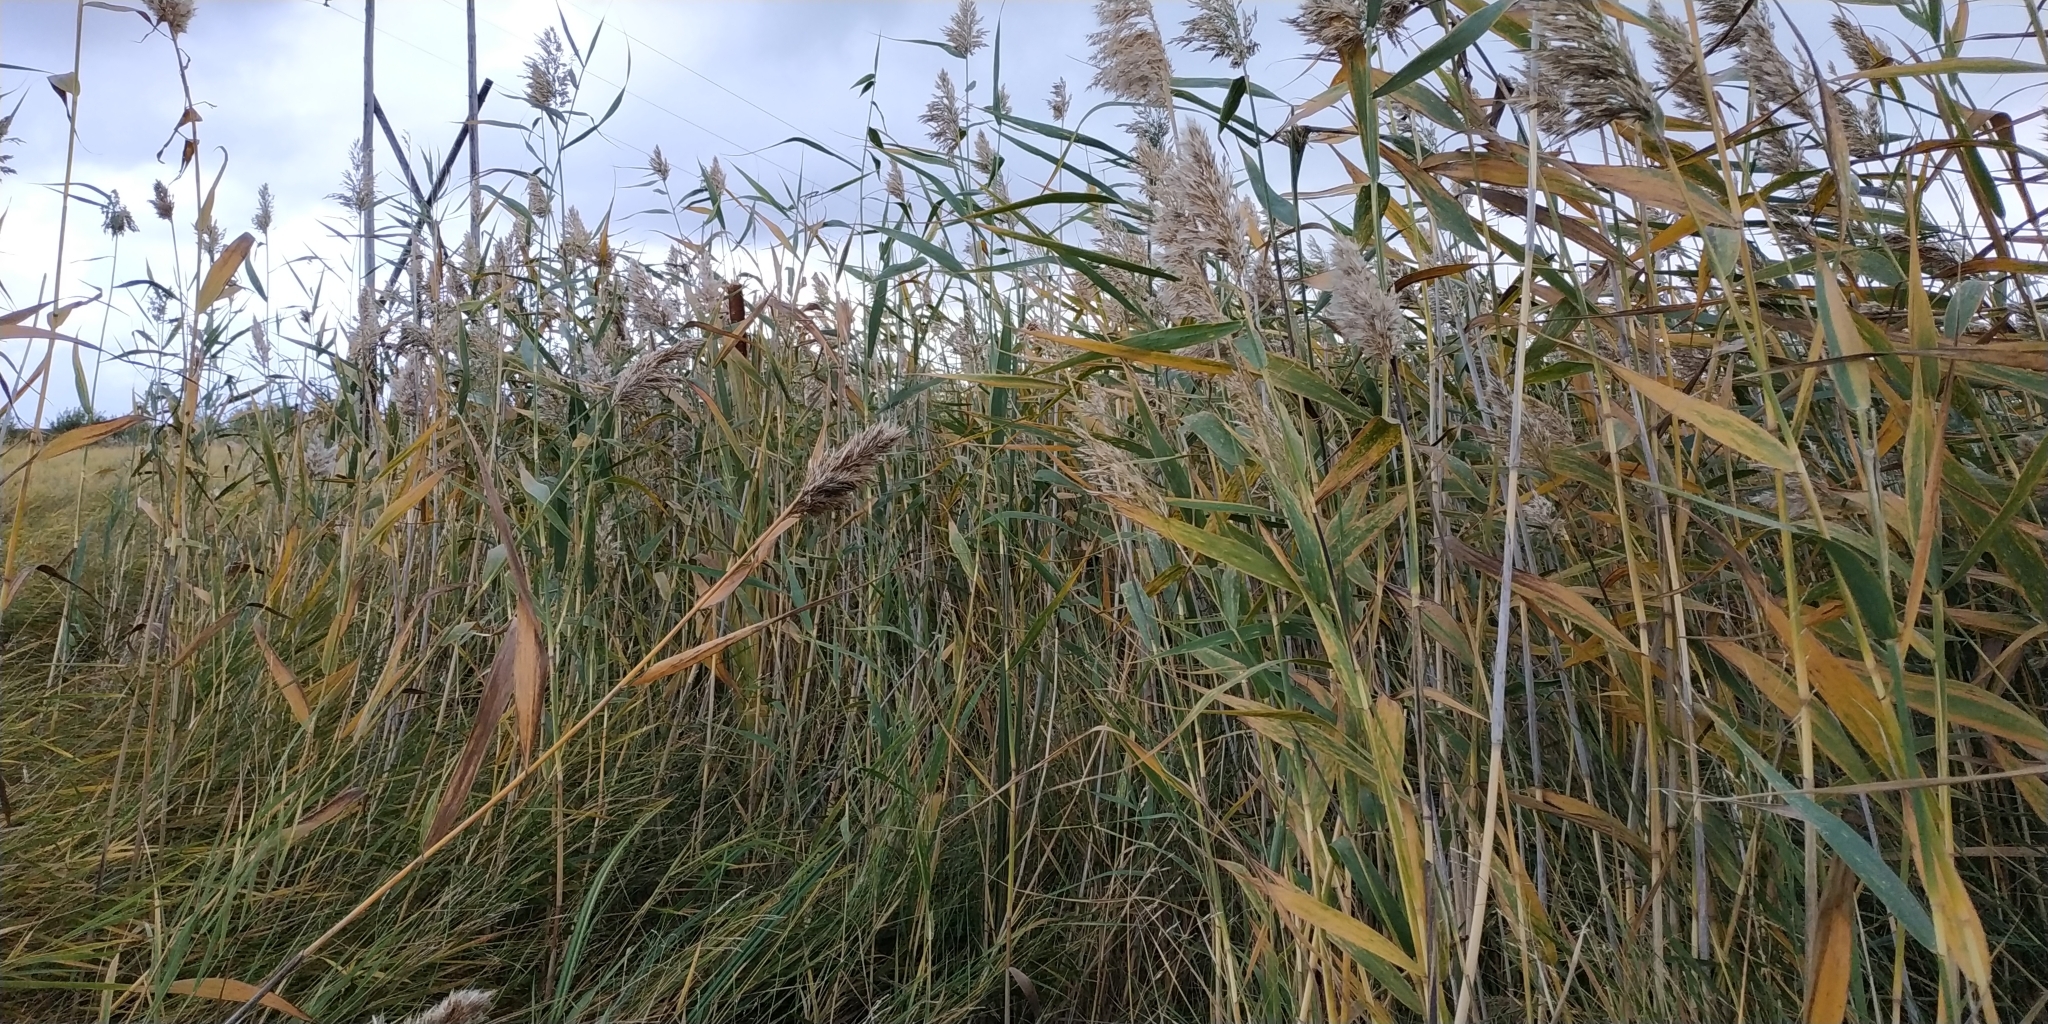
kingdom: Plantae
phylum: Tracheophyta
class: Liliopsida
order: Poales
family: Poaceae
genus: Phragmites
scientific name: Phragmites australis
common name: Common reed
